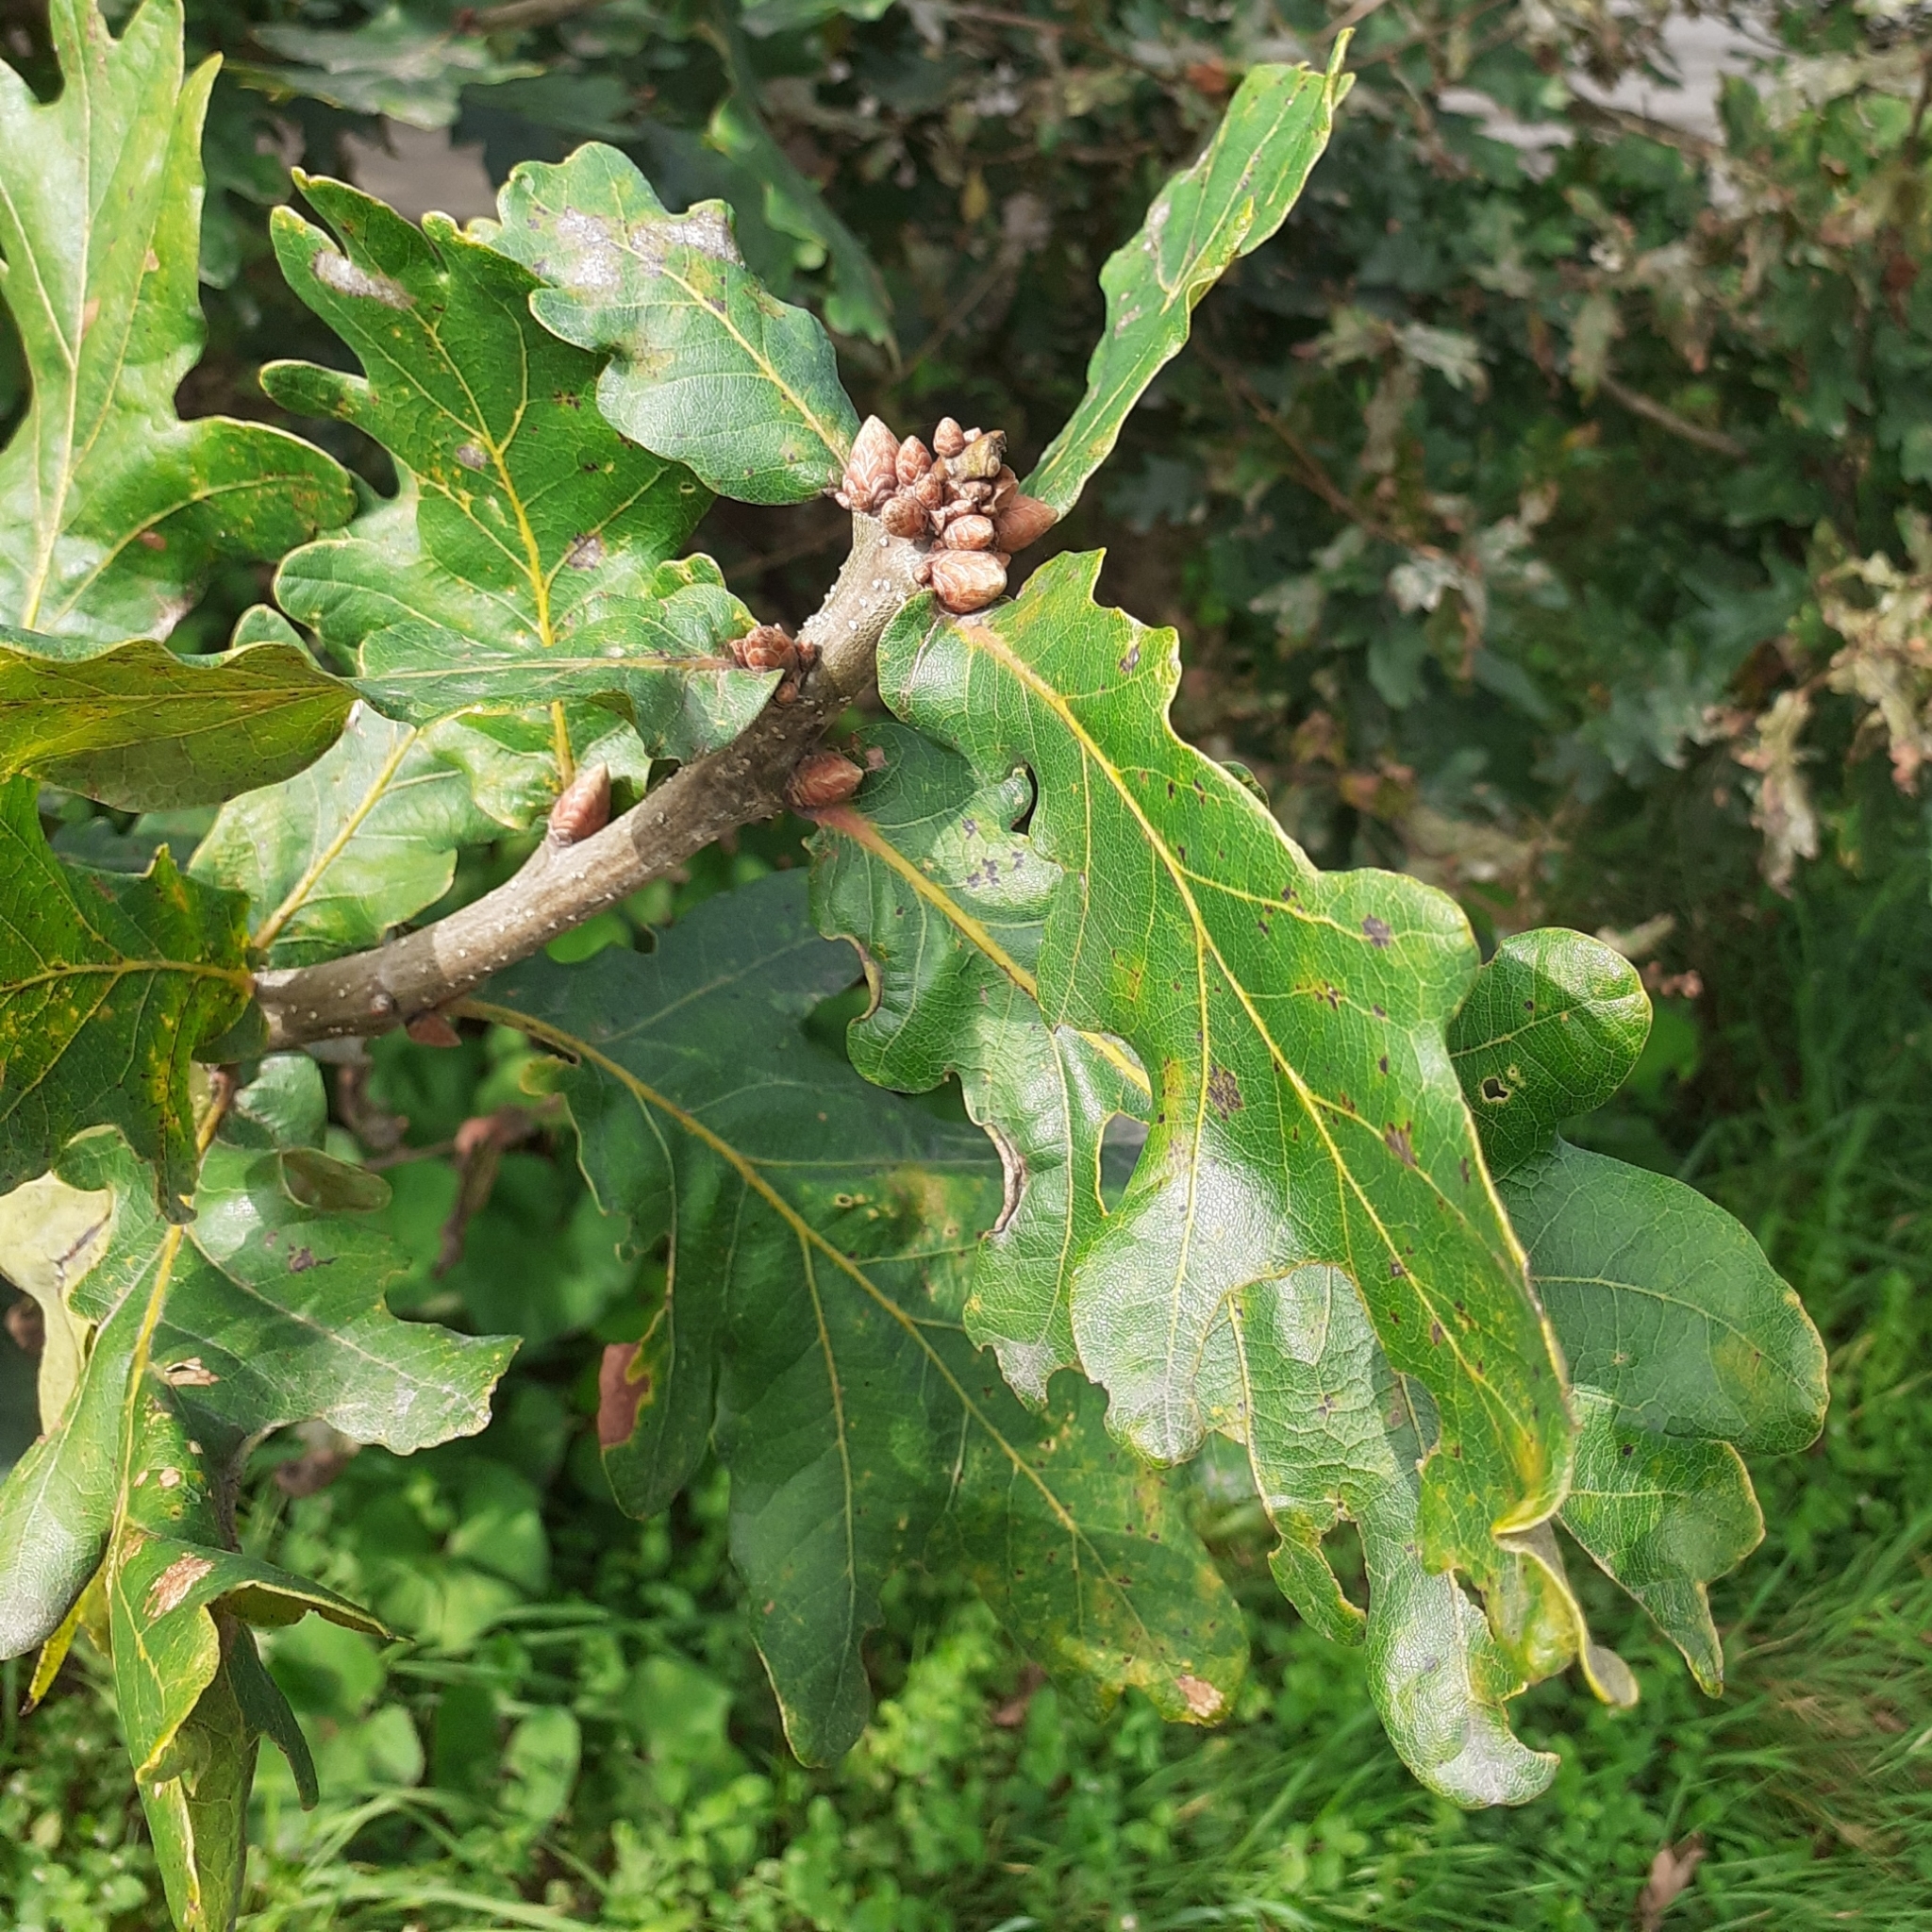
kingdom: Plantae
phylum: Tracheophyta
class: Magnoliopsida
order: Fagales
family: Fagaceae
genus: Quercus
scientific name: Quercus robur
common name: Pedunculate oak
